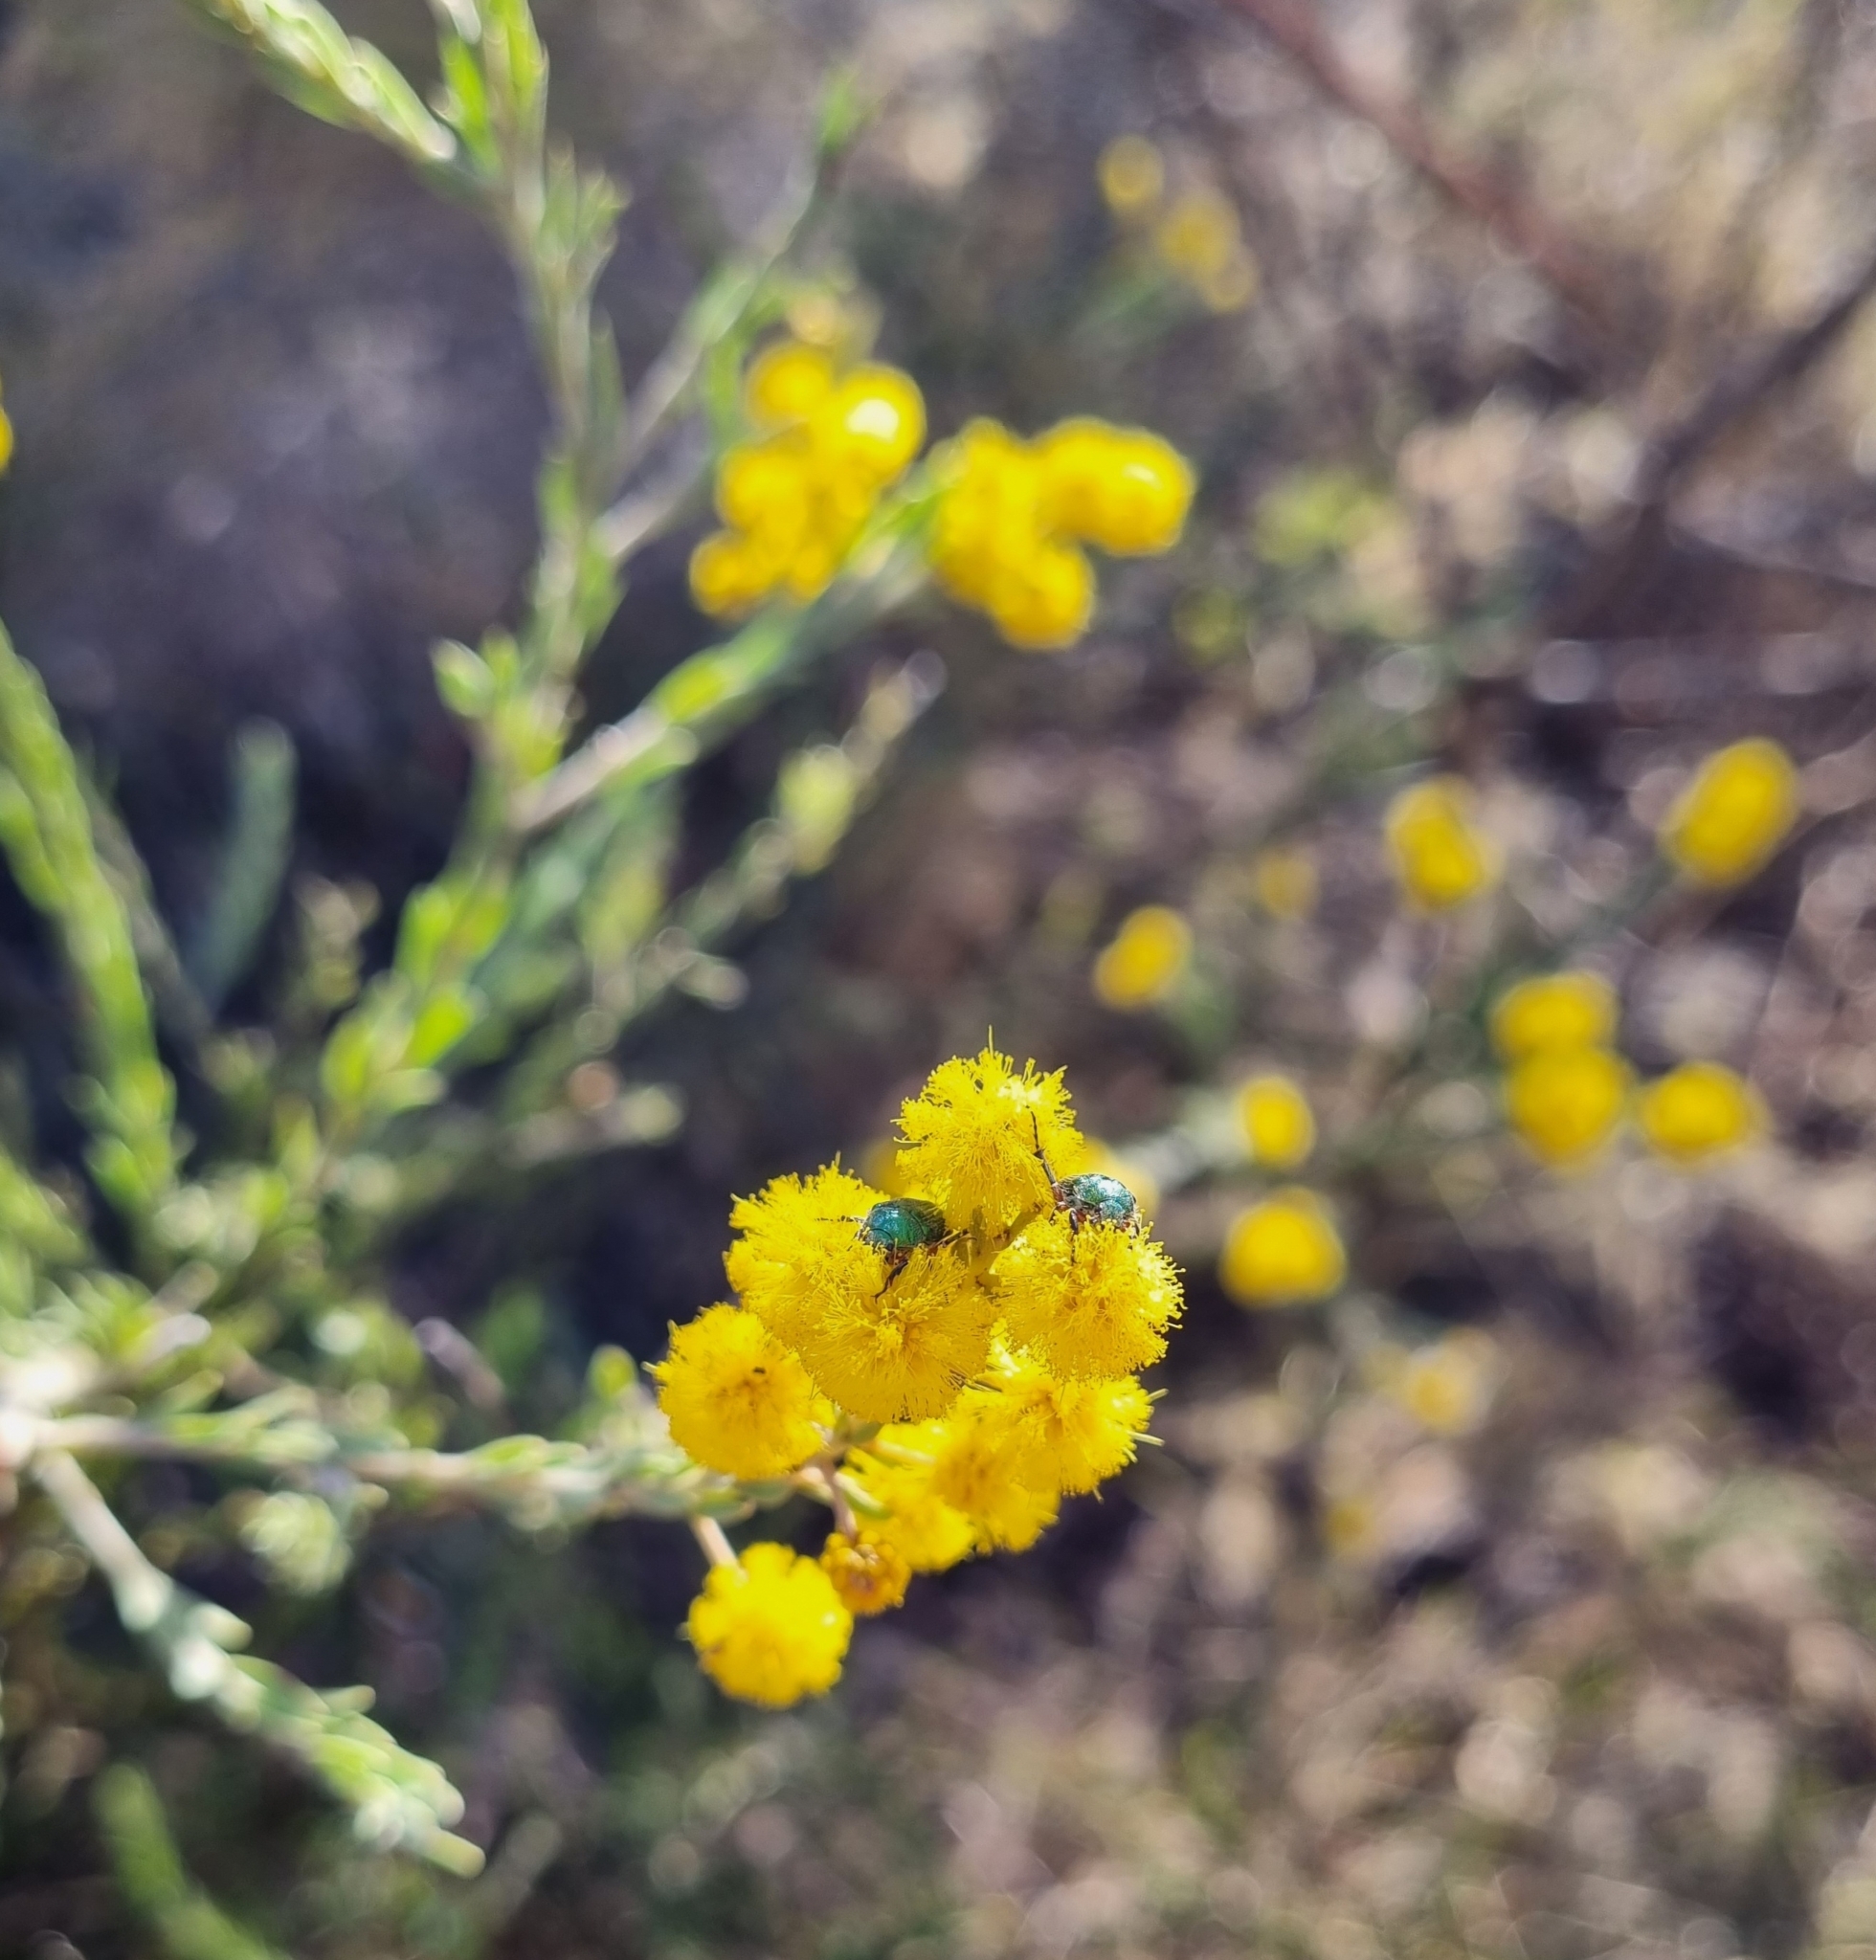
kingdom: Plantae
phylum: Tracheophyta
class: Magnoliopsida
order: Fabales
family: Fabaceae
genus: Acacia
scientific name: Acacia mariae
